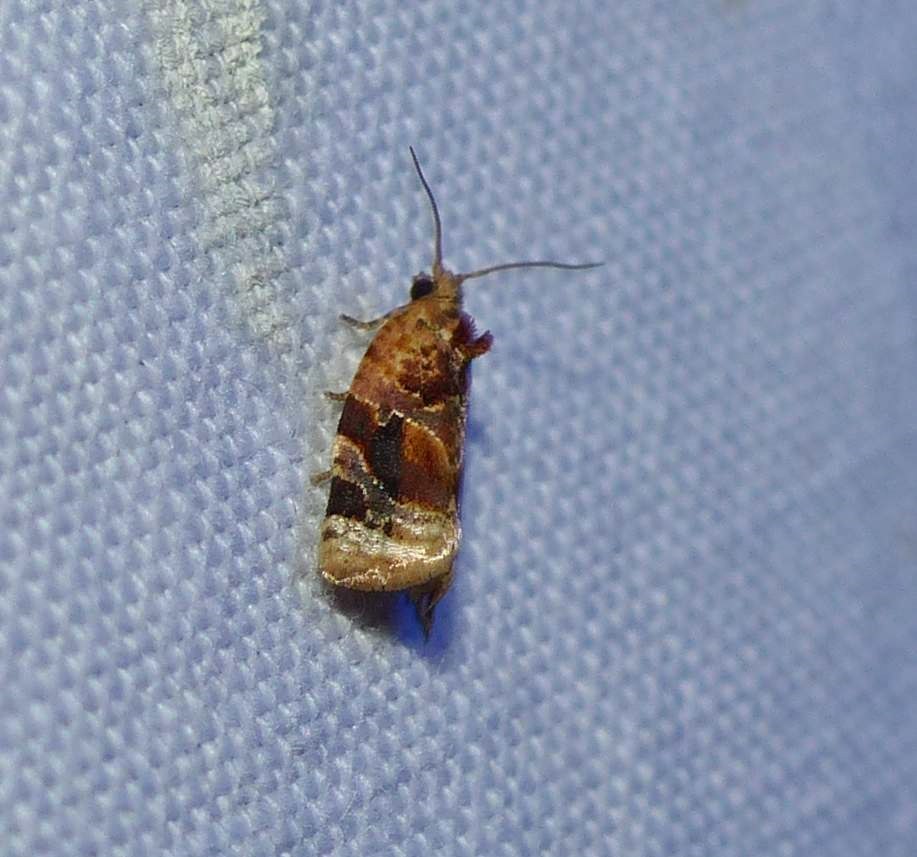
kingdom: Animalia
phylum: Arthropoda
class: Insecta
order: Lepidoptera
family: Tortricidae
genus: Argyrotaenia
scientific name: Argyrotaenia velutinana
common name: Red-banded leafroller moth
